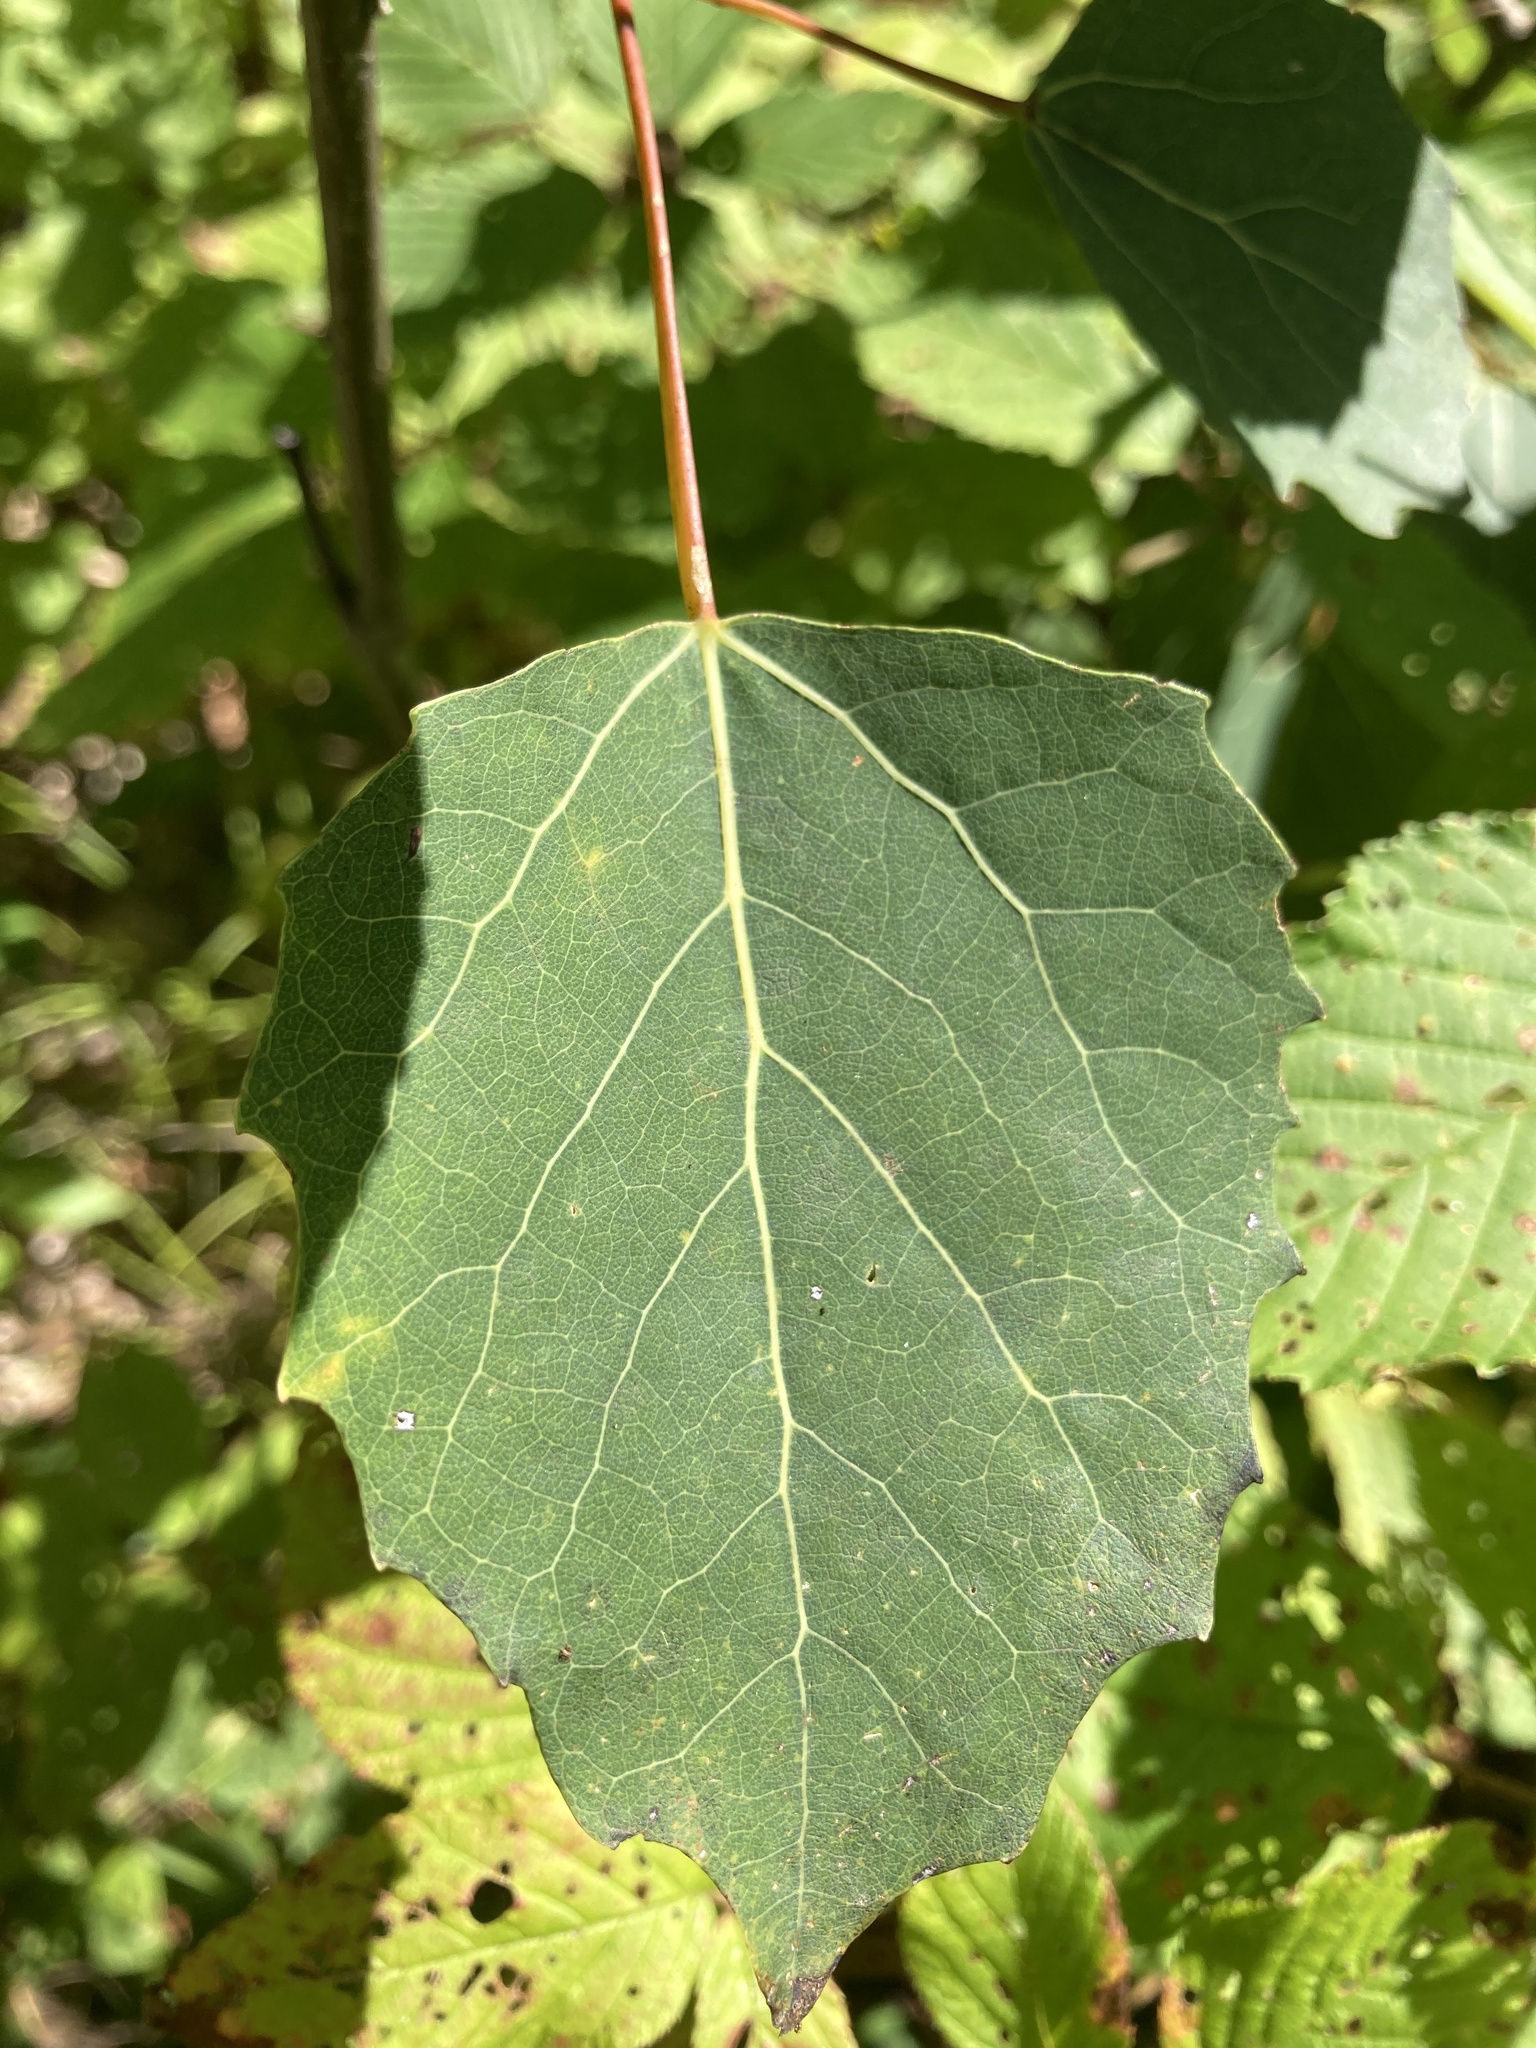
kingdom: Plantae
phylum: Tracheophyta
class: Magnoliopsida
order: Malpighiales
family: Salicaceae
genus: Populus
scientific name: Populus grandidentata
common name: Bigtooth aspen
